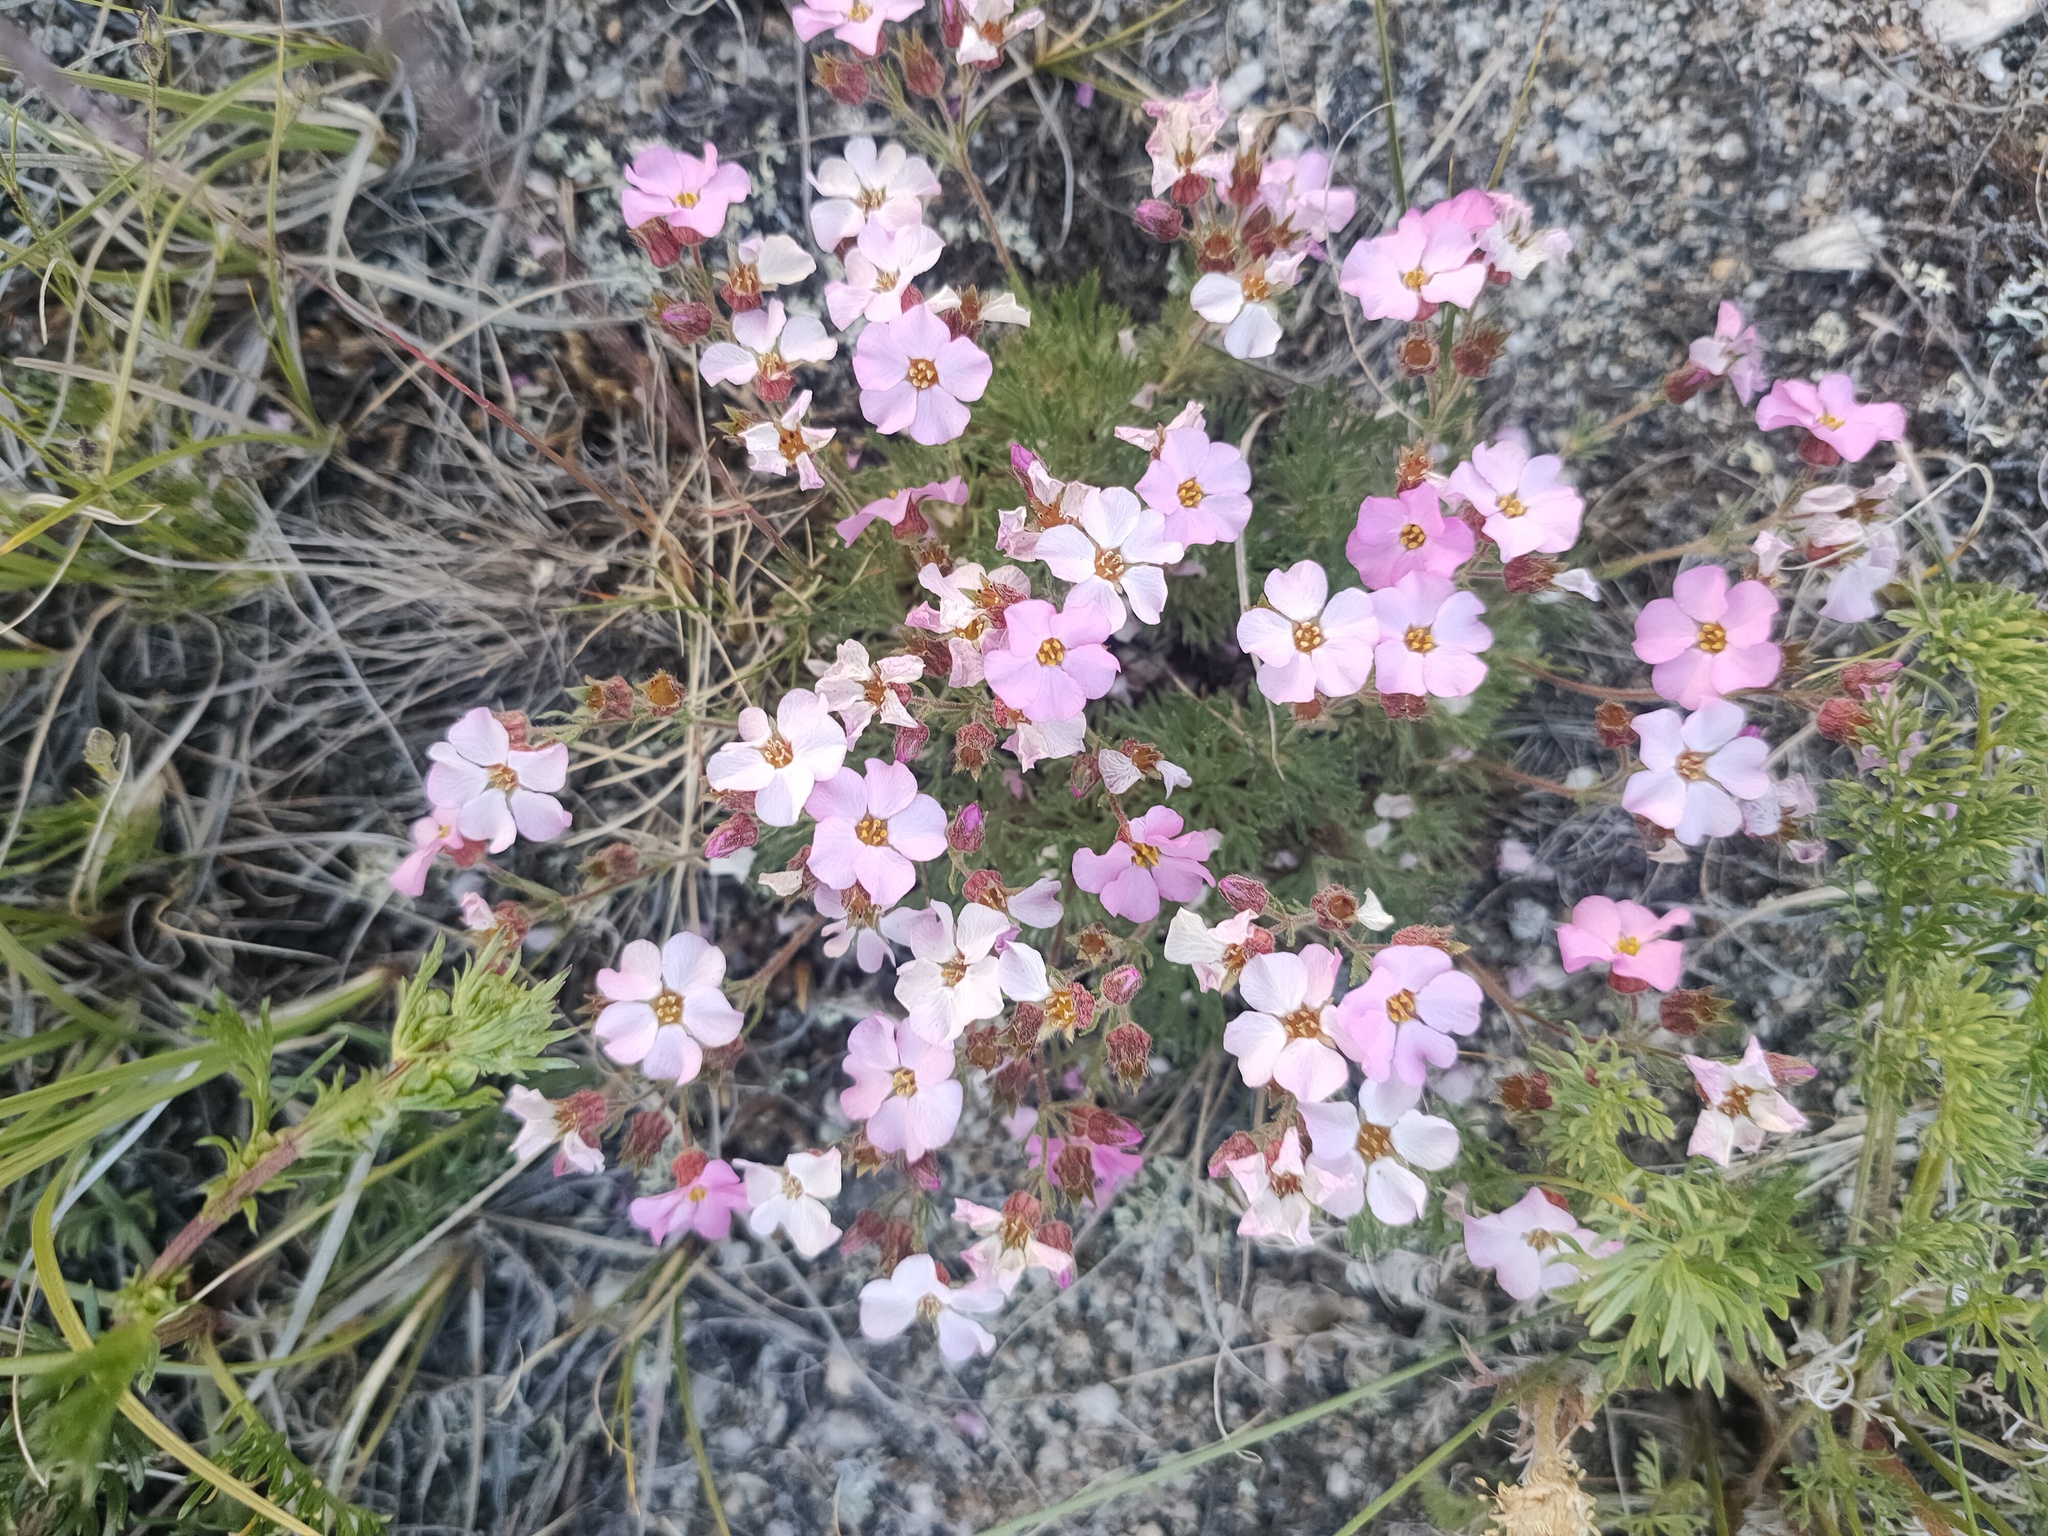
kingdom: Plantae
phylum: Tracheophyta
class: Magnoliopsida
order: Rosales
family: Rosaceae
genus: Chamaerhodos
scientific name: Chamaerhodos grandiflora
